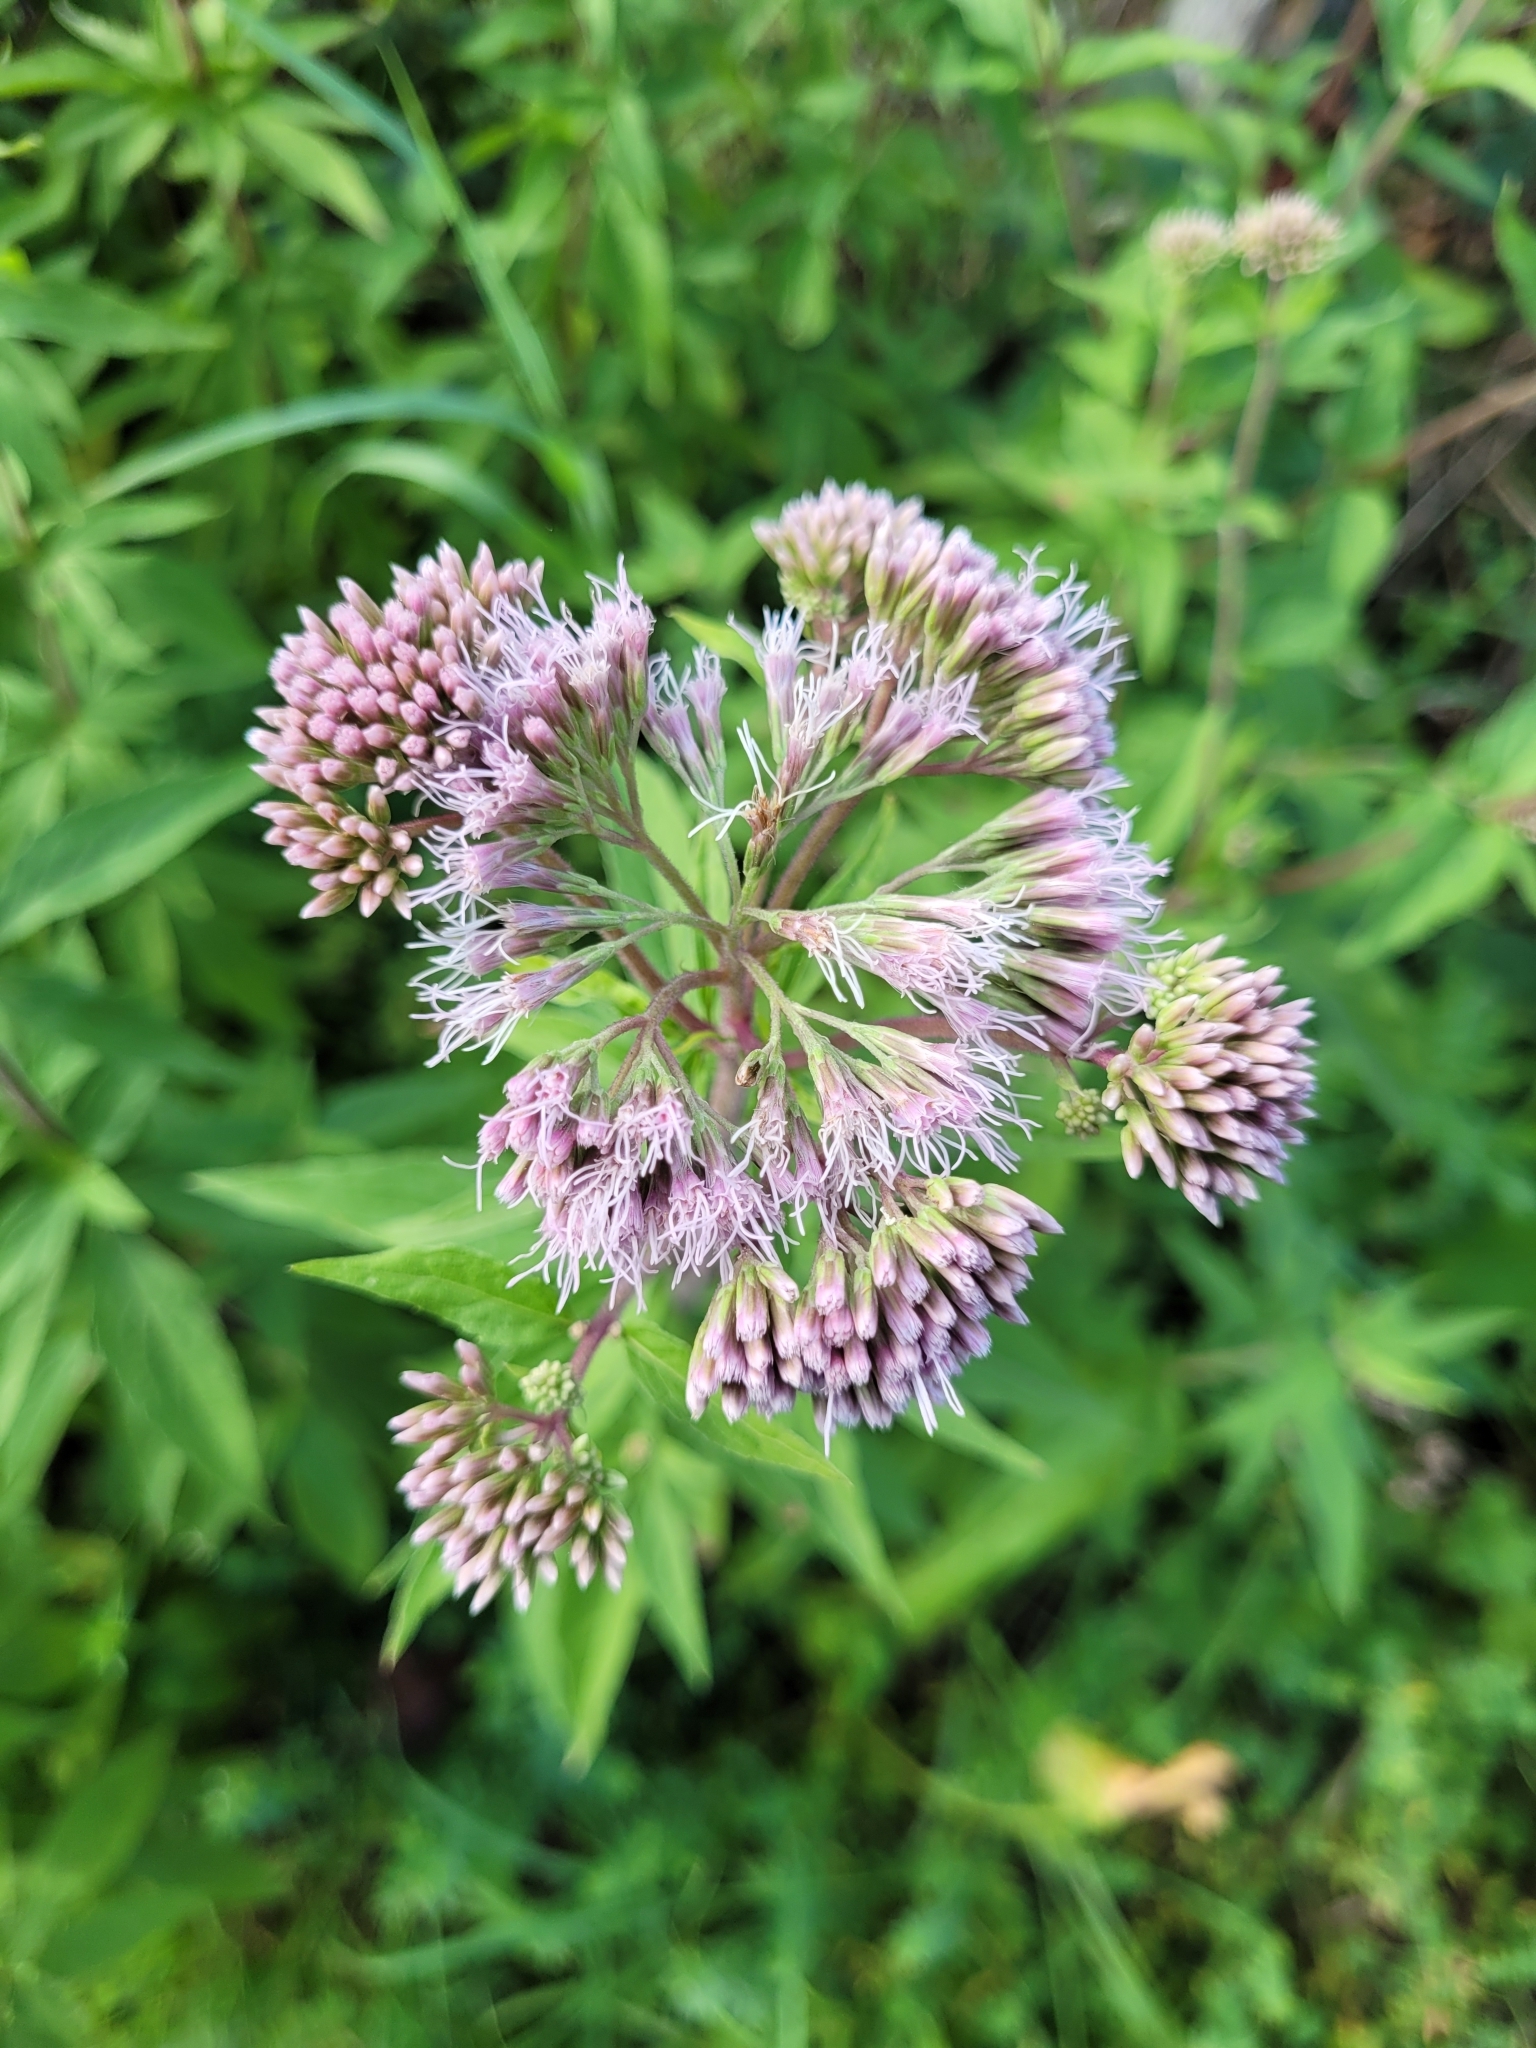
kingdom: Plantae
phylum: Tracheophyta
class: Magnoliopsida
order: Asterales
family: Asteraceae
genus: Eupatorium
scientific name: Eupatorium cannabinum
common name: Hemp-agrimony
